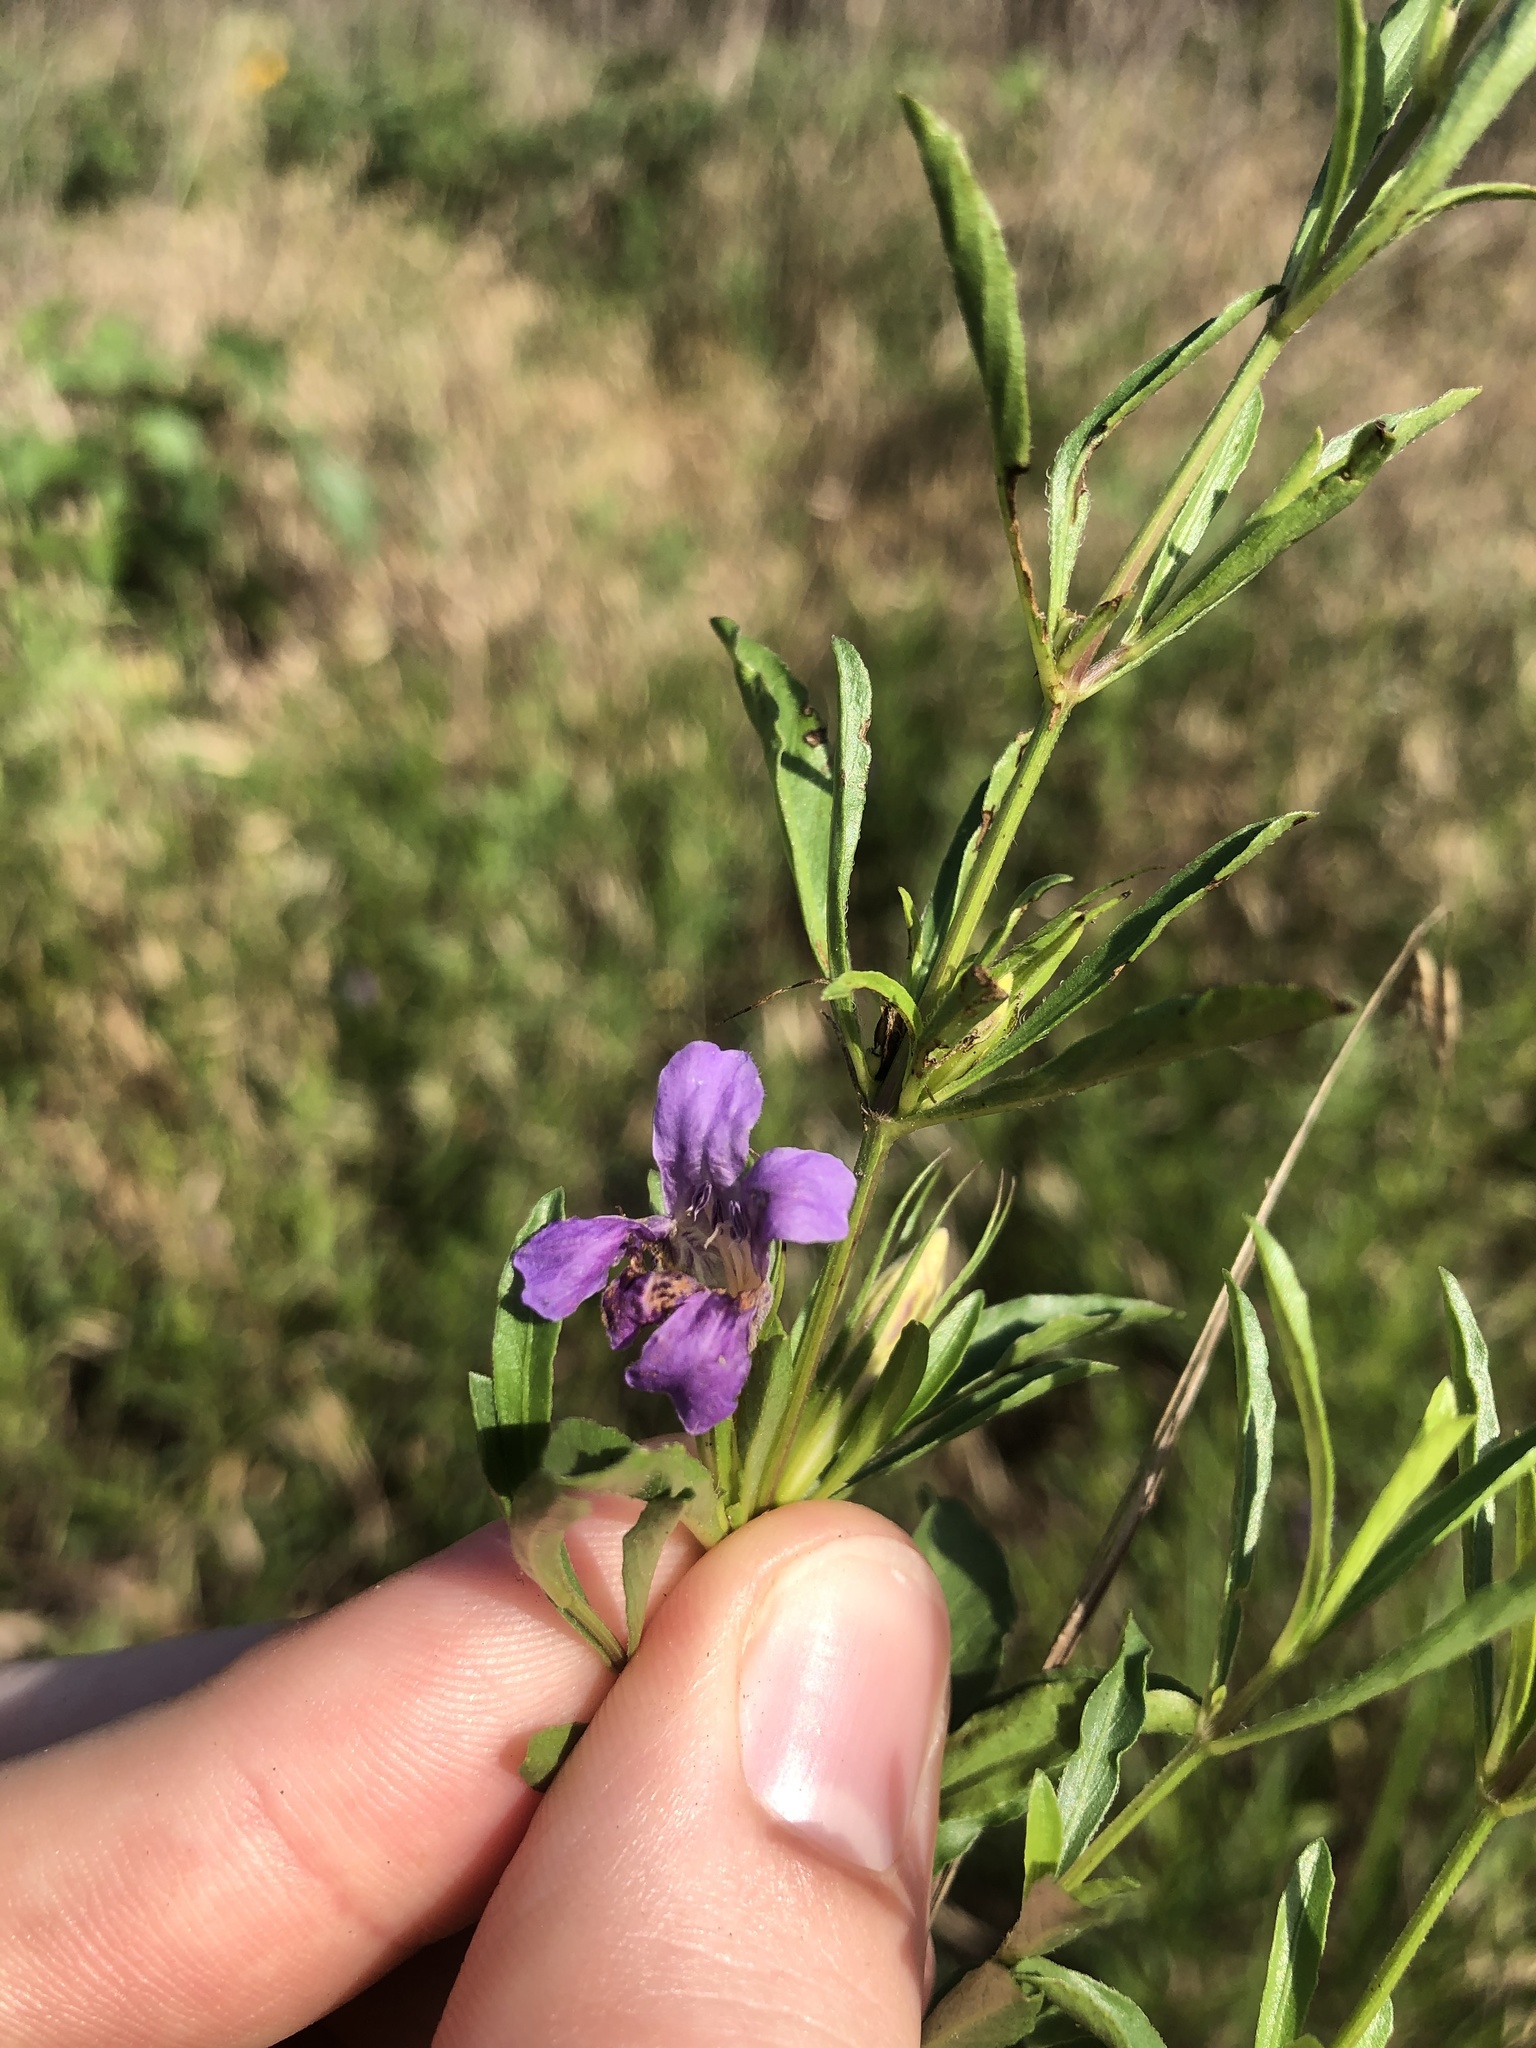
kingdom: Plantae
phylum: Tracheophyta
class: Magnoliopsida
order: Lamiales
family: Acanthaceae
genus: Dyschoriste
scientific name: Dyschoriste linearis
